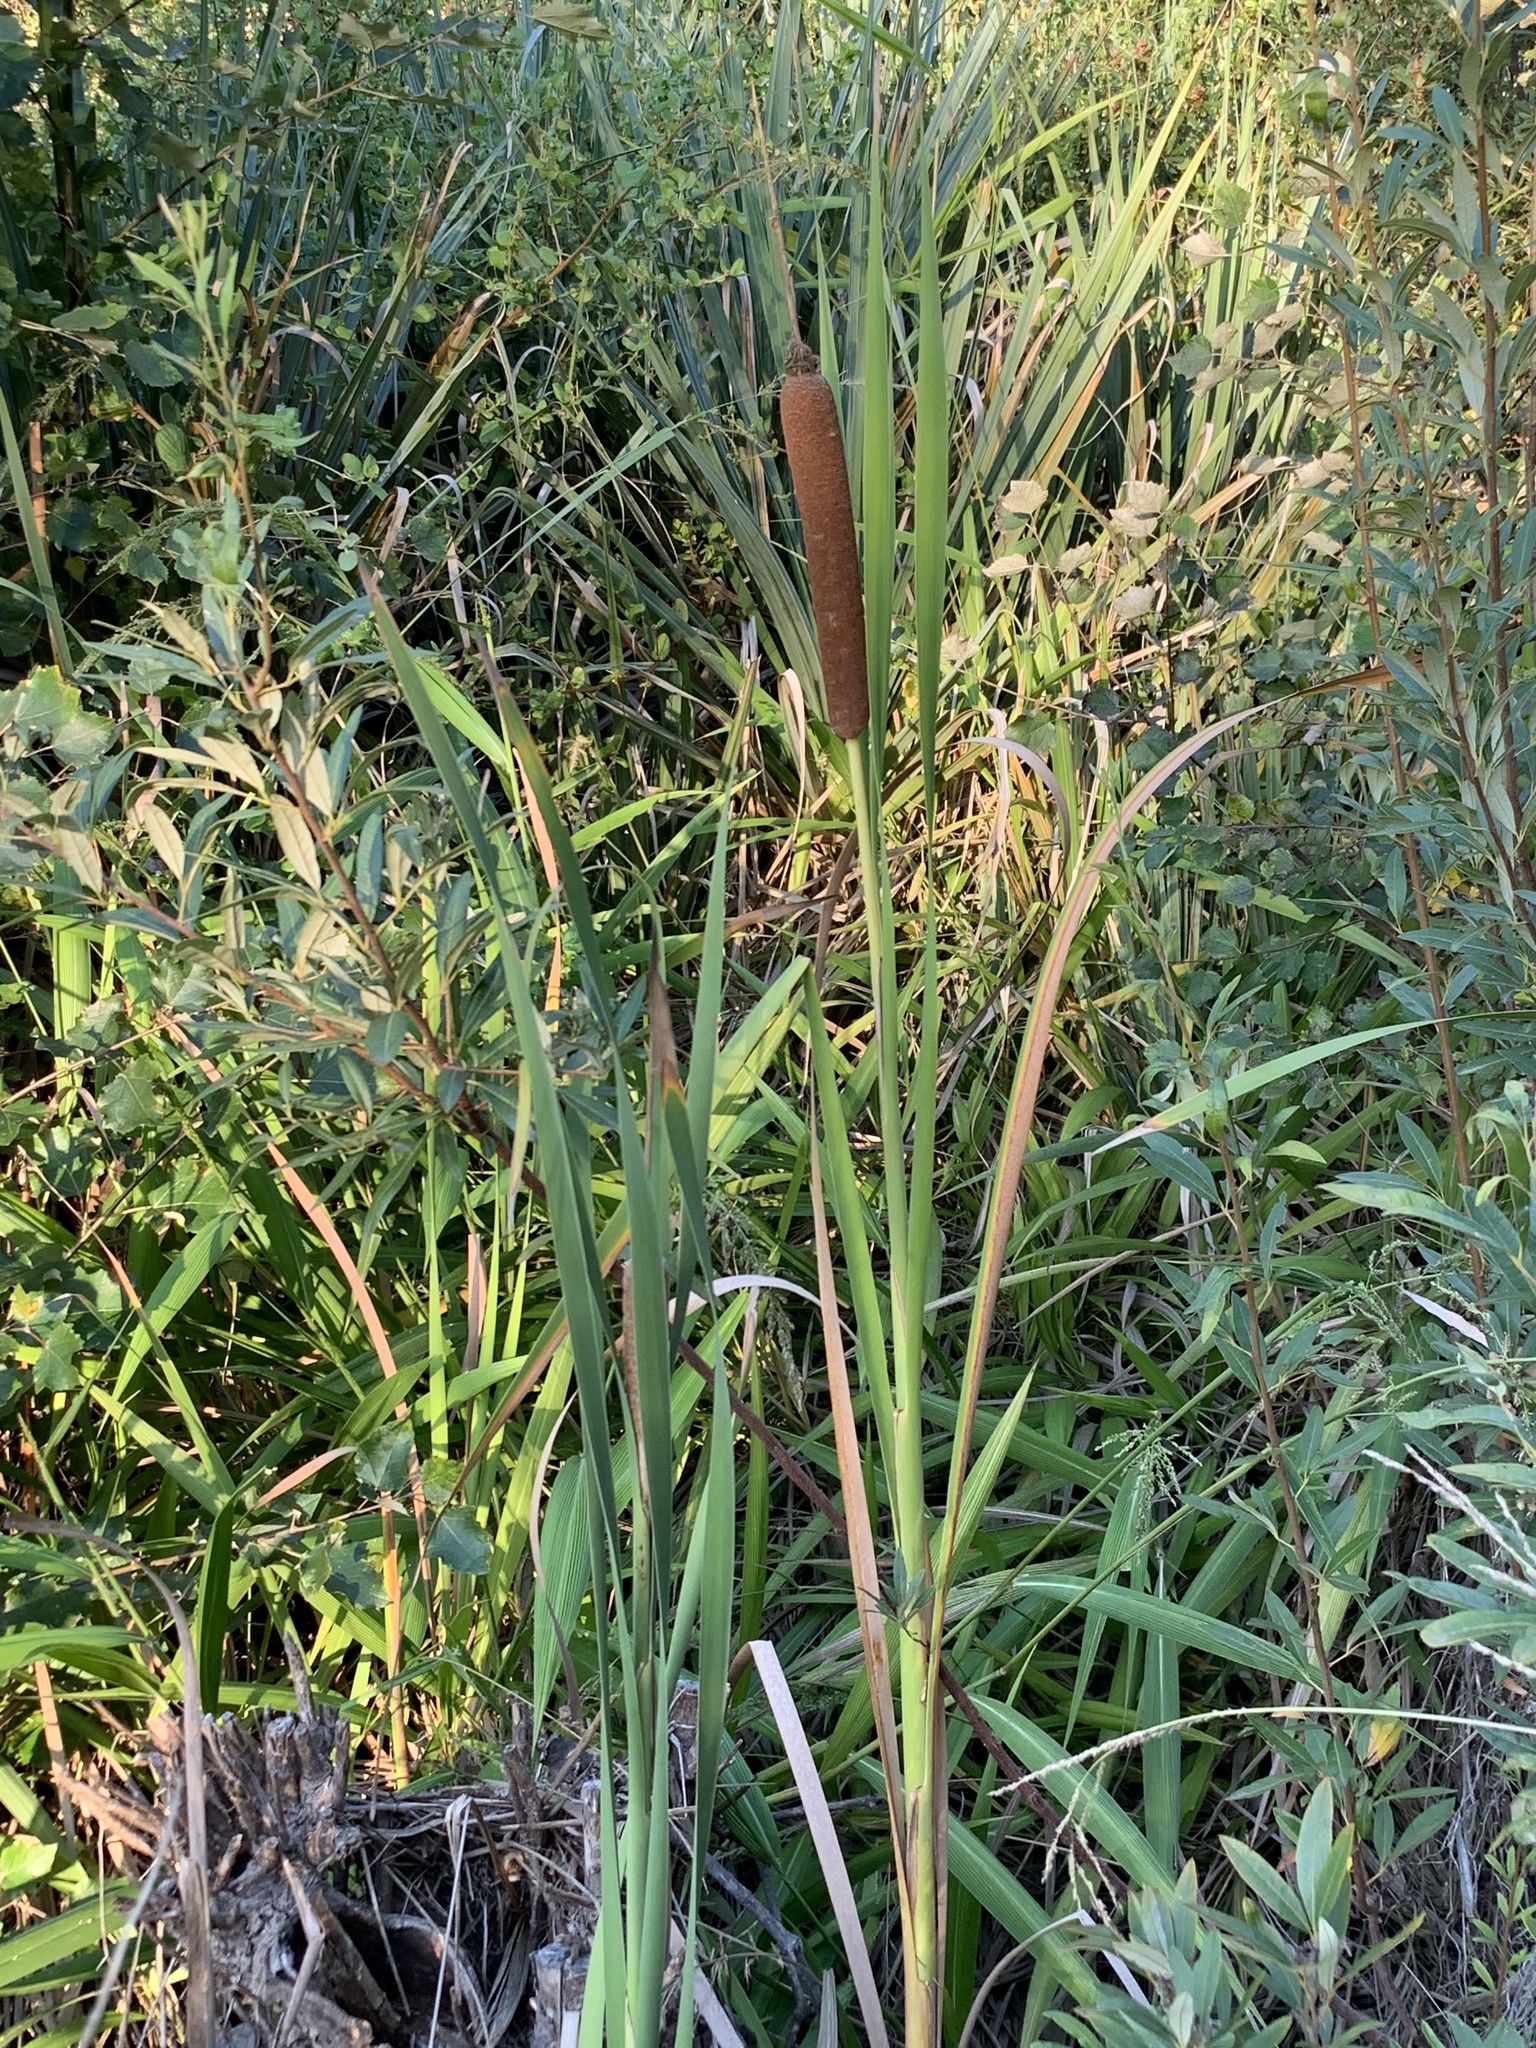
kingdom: Plantae
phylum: Tracheophyta
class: Liliopsida
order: Poales
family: Typhaceae
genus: Typha
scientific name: Typha capensis
